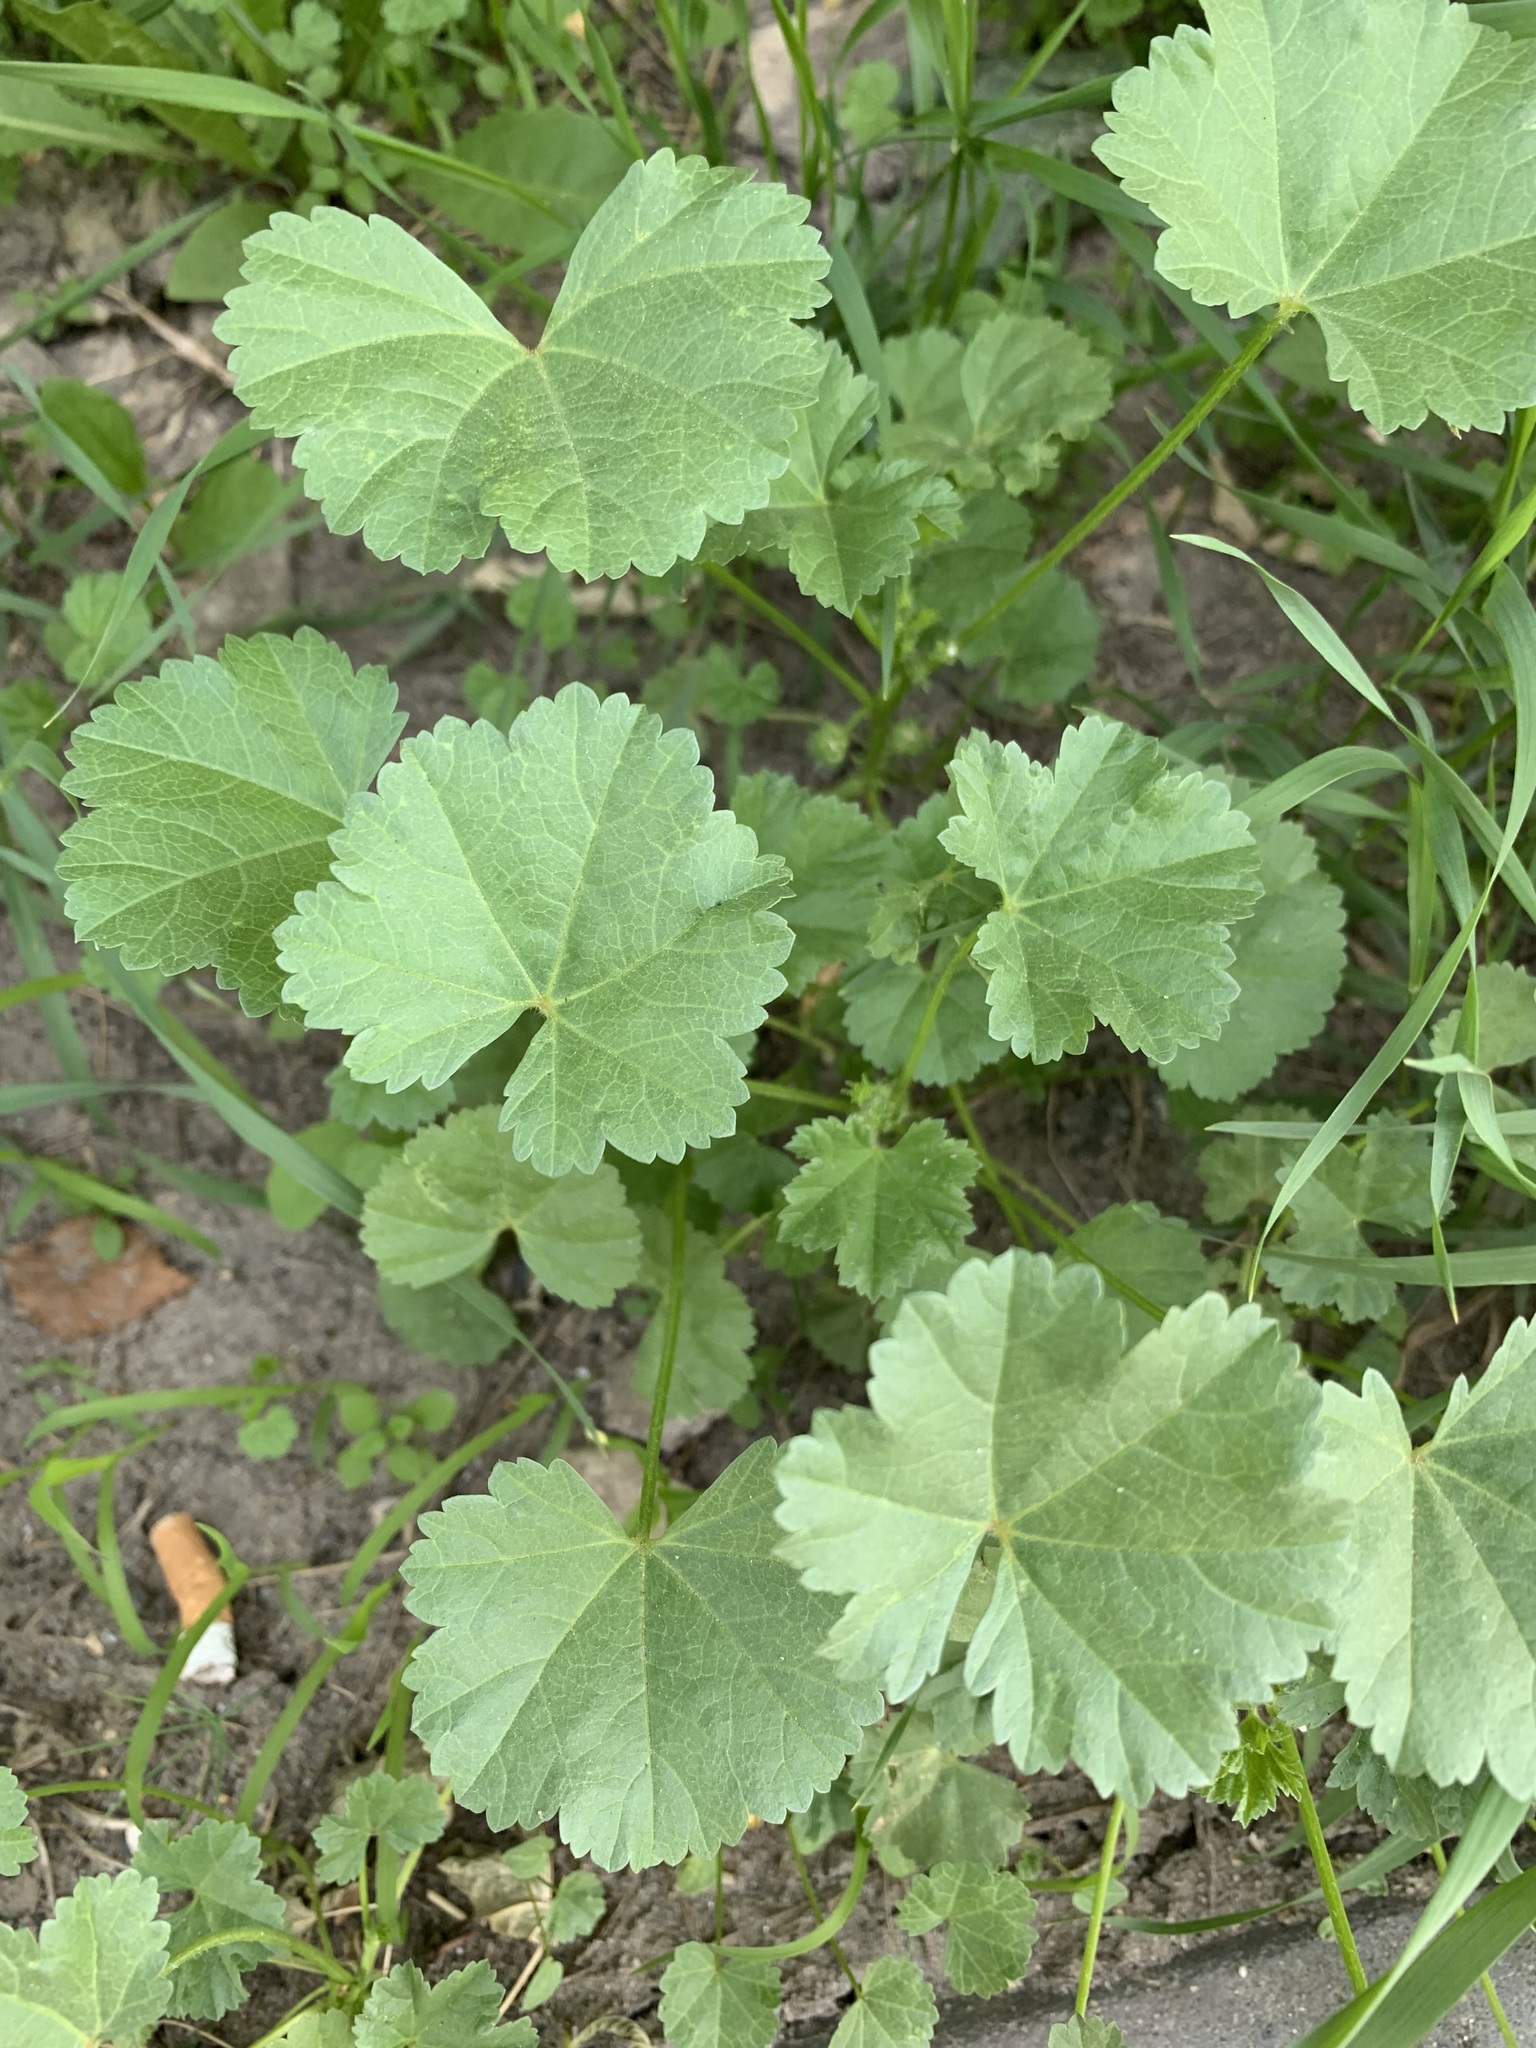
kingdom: Plantae
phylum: Tracheophyta
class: Magnoliopsida
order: Malvales
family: Malvaceae
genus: Malva
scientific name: Malva pusilla
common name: Small mallow
